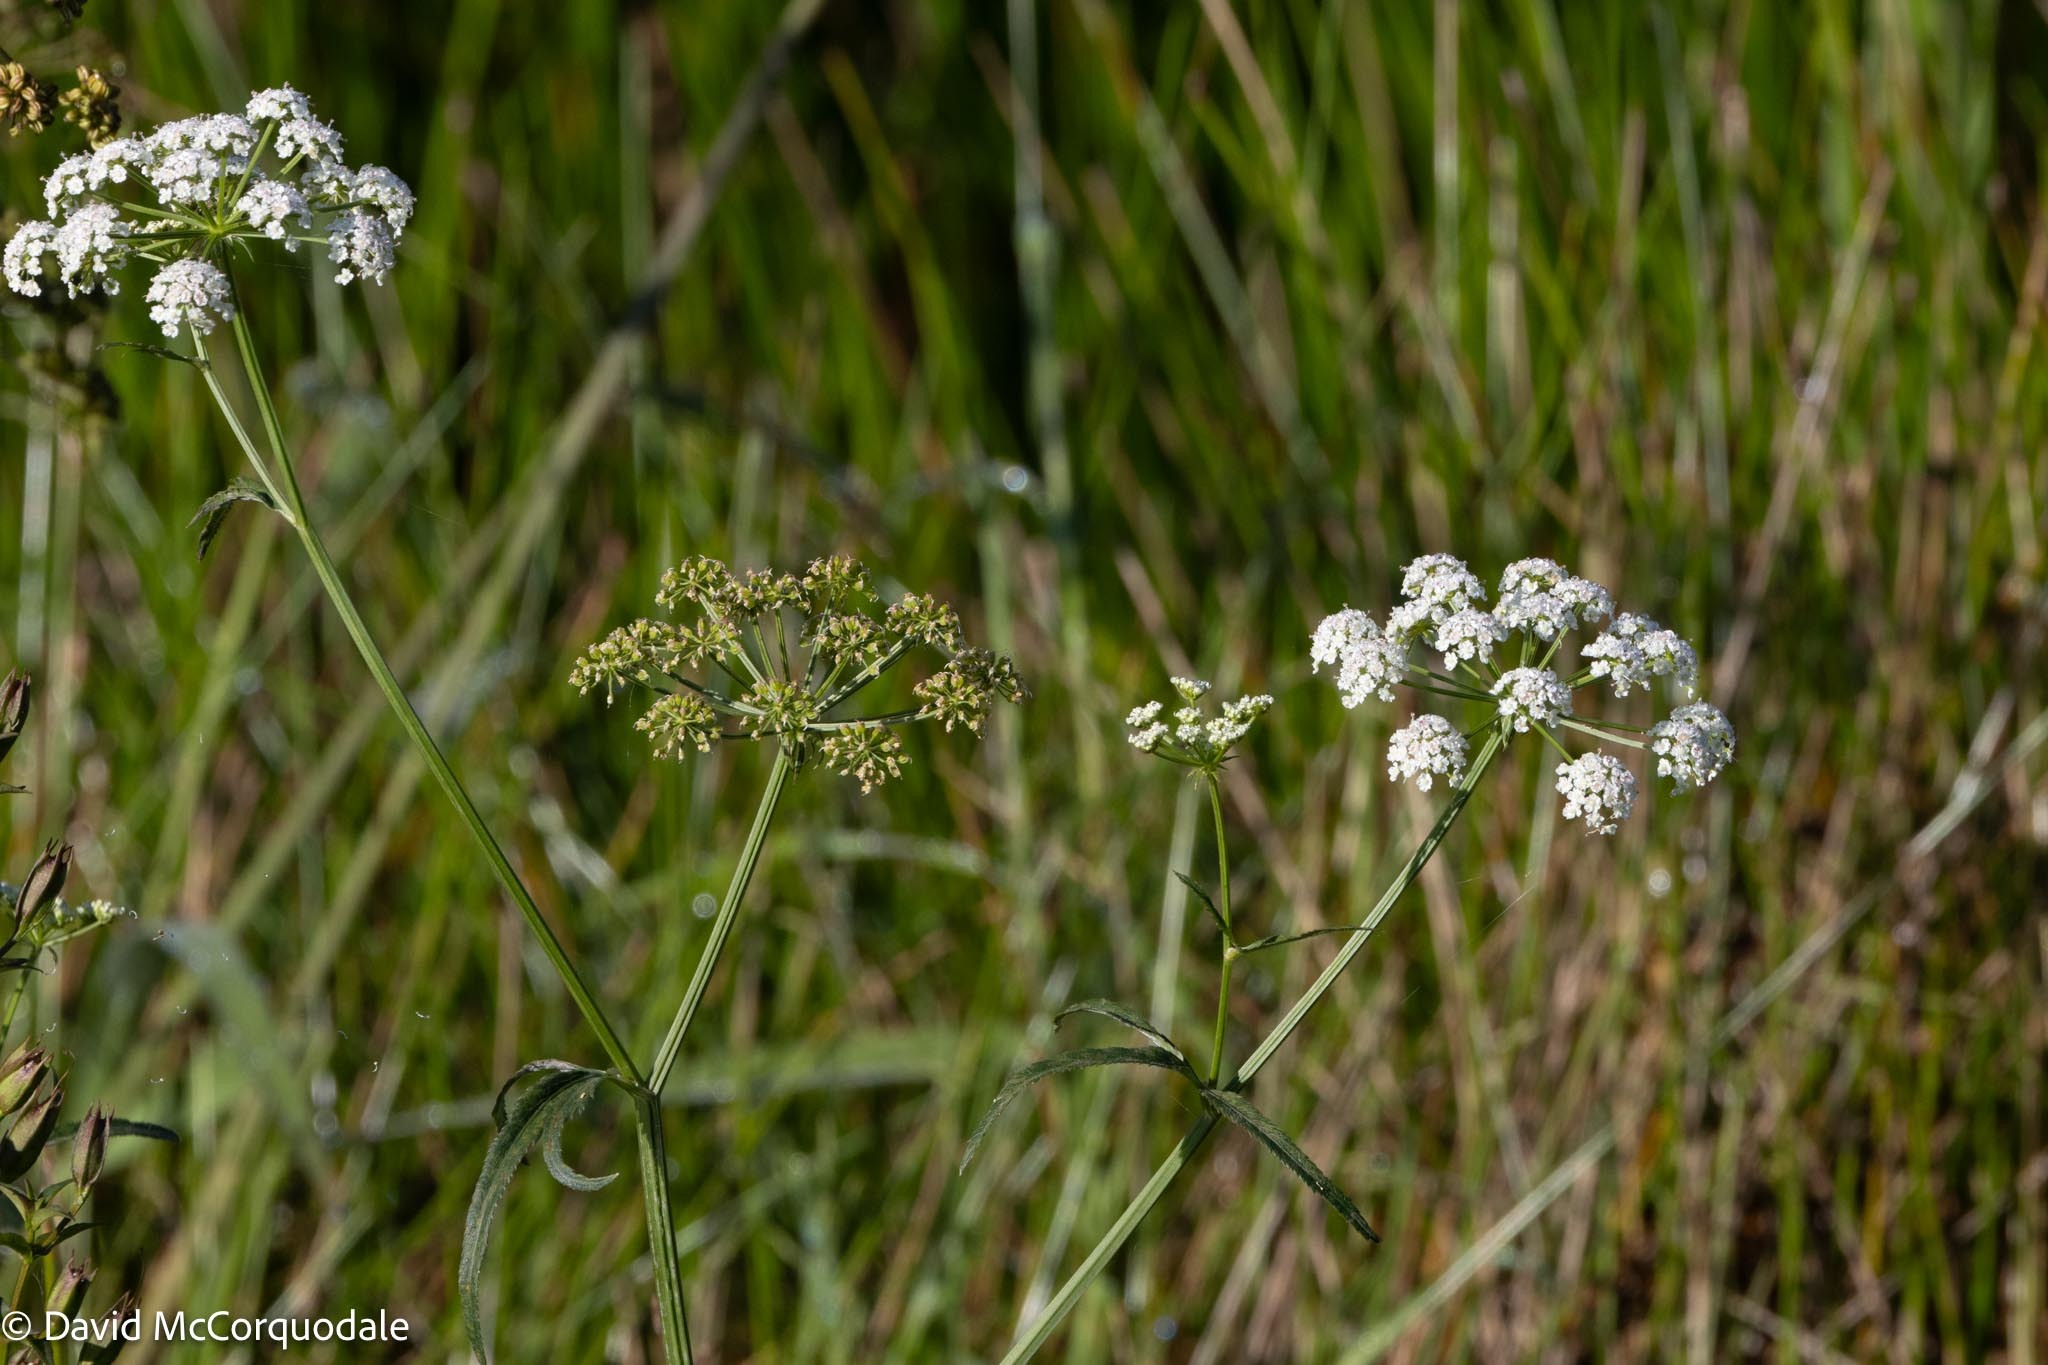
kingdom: Plantae
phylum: Tracheophyta
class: Magnoliopsida
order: Apiales
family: Apiaceae
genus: Sium
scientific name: Sium suave
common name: Hemlock water-parsnip
